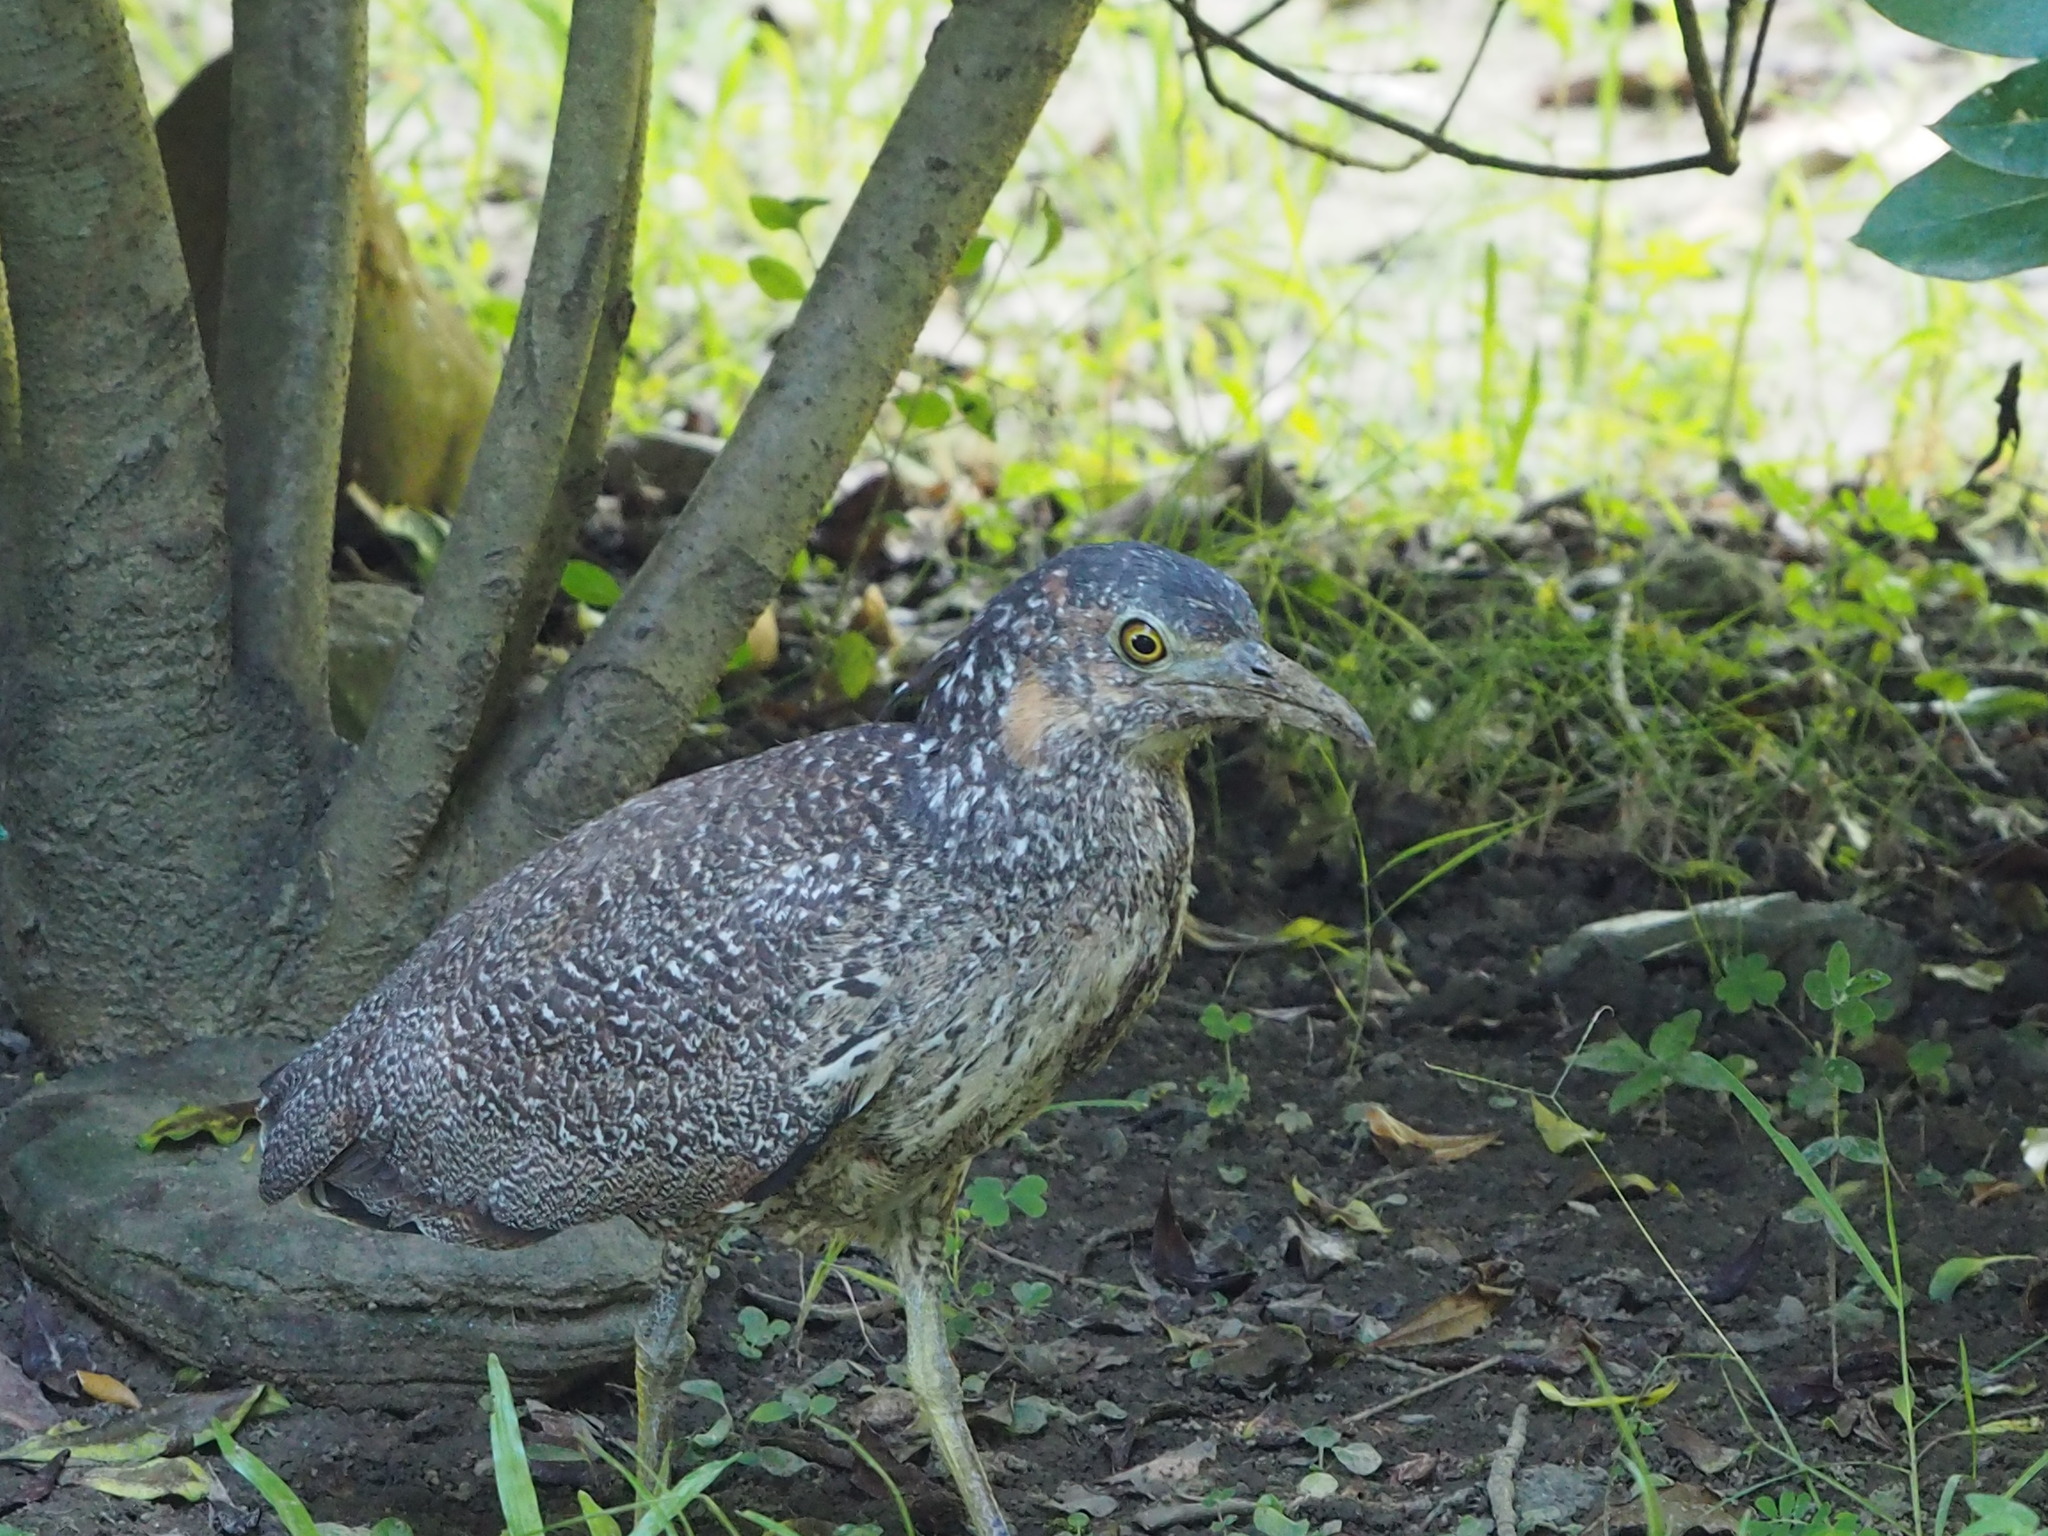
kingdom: Animalia
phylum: Chordata
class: Aves
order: Pelecaniformes
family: Ardeidae
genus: Gorsachius
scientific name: Gorsachius melanolophus
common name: Malayan night heron
